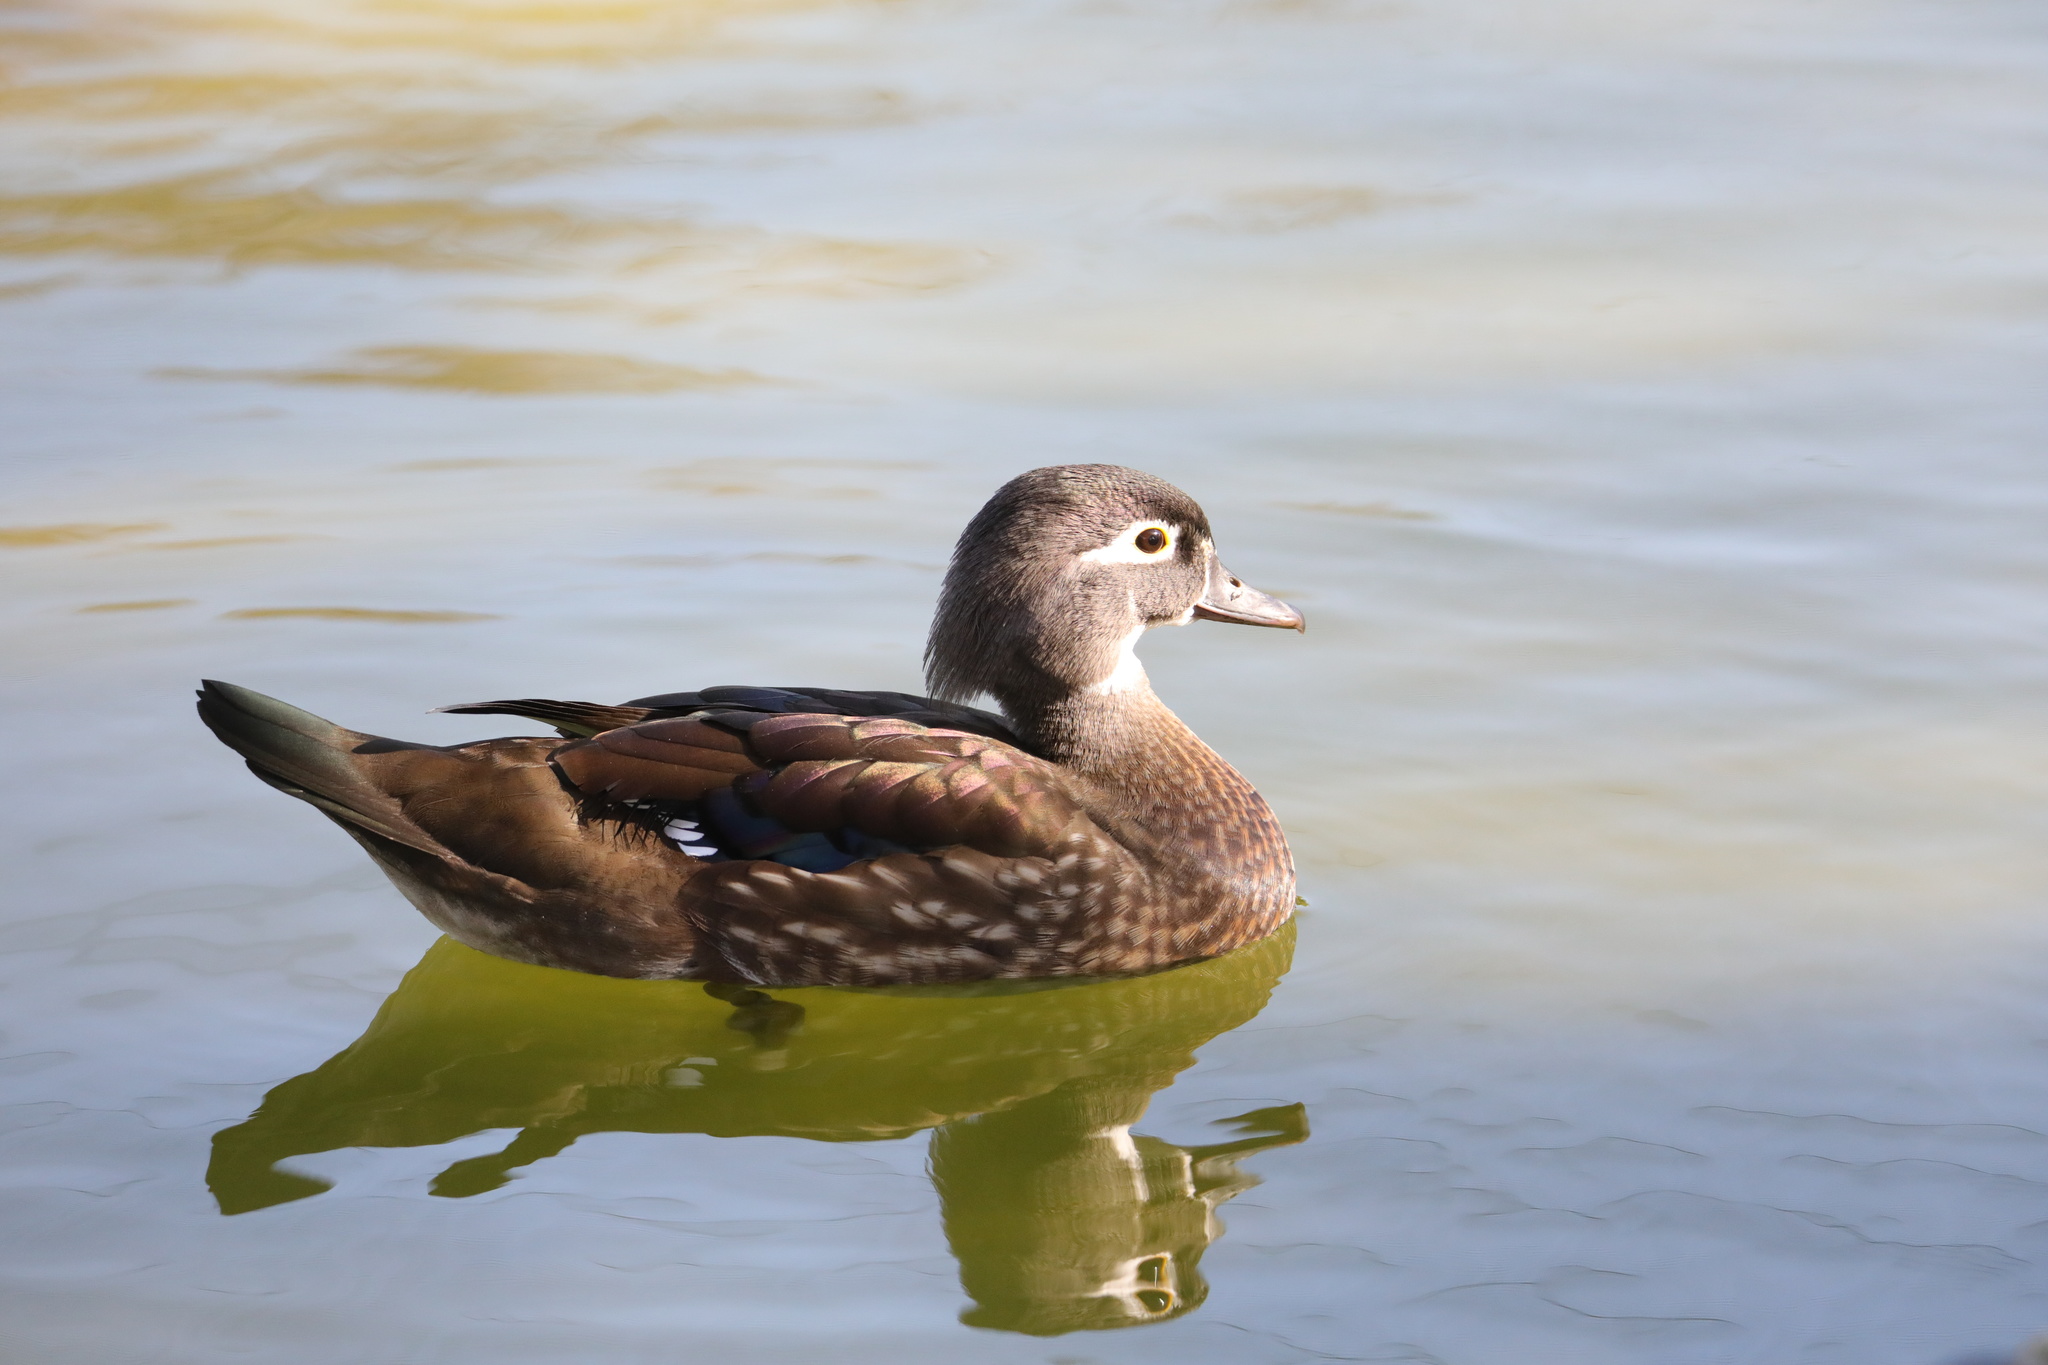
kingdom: Animalia
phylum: Chordata
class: Aves
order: Anseriformes
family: Anatidae
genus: Aix
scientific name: Aix sponsa
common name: Wood duck
